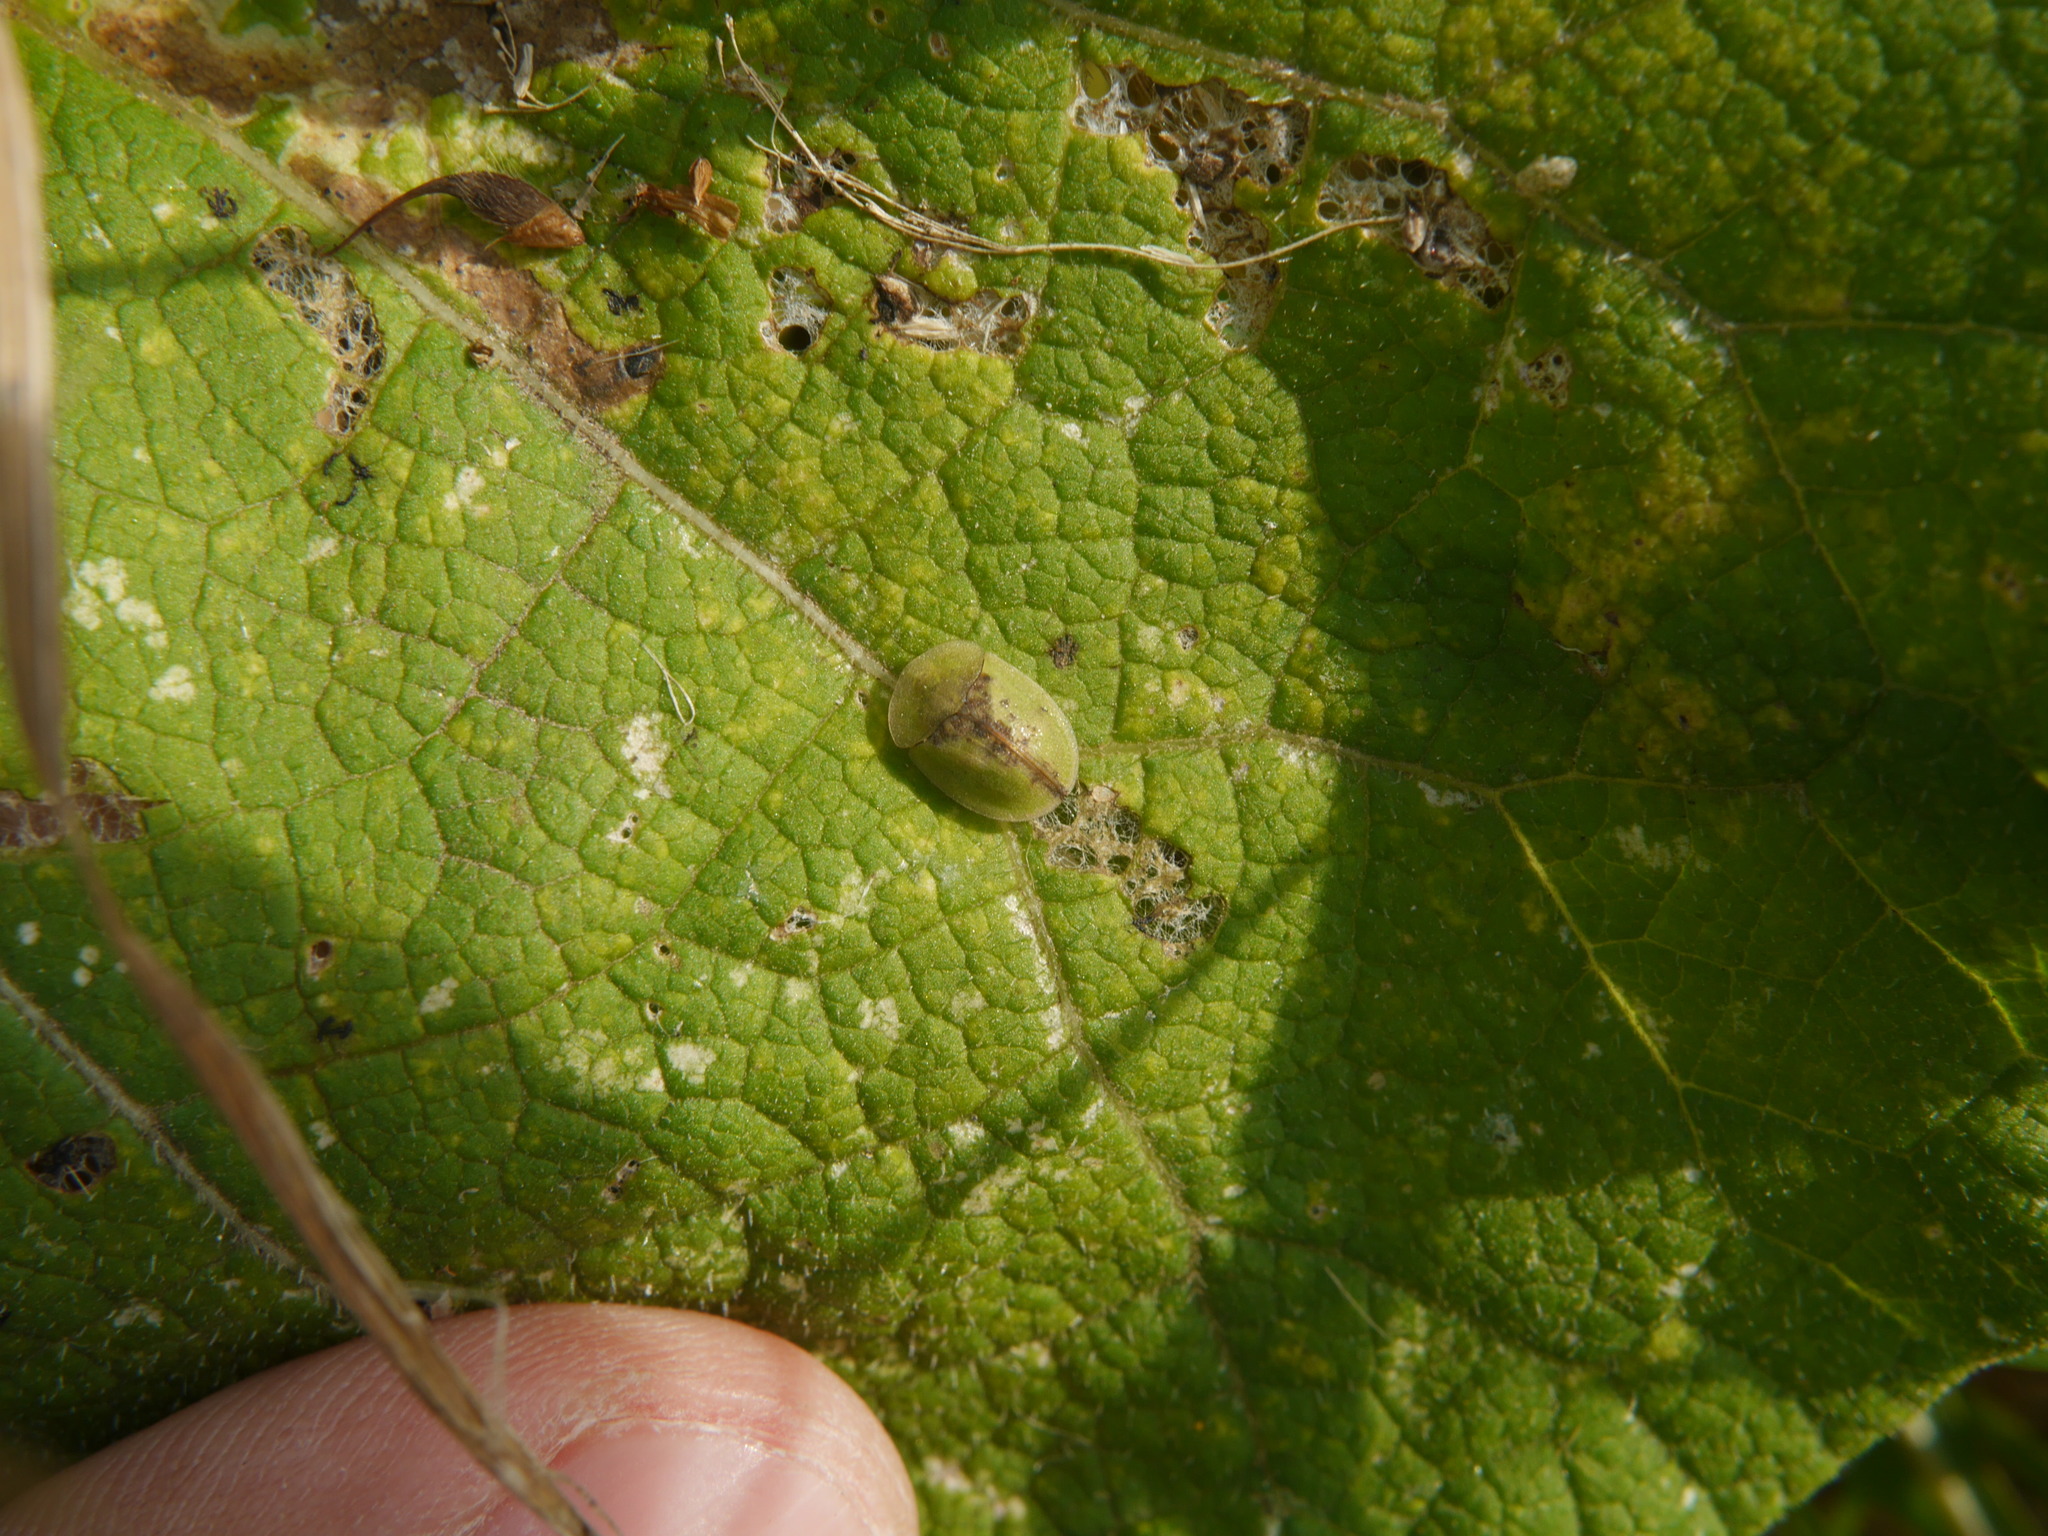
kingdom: Animalia
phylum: Arthropoda
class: Insecta
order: Coleoptera
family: Chrysomelidae
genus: Cassida
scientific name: Cassida vibex
